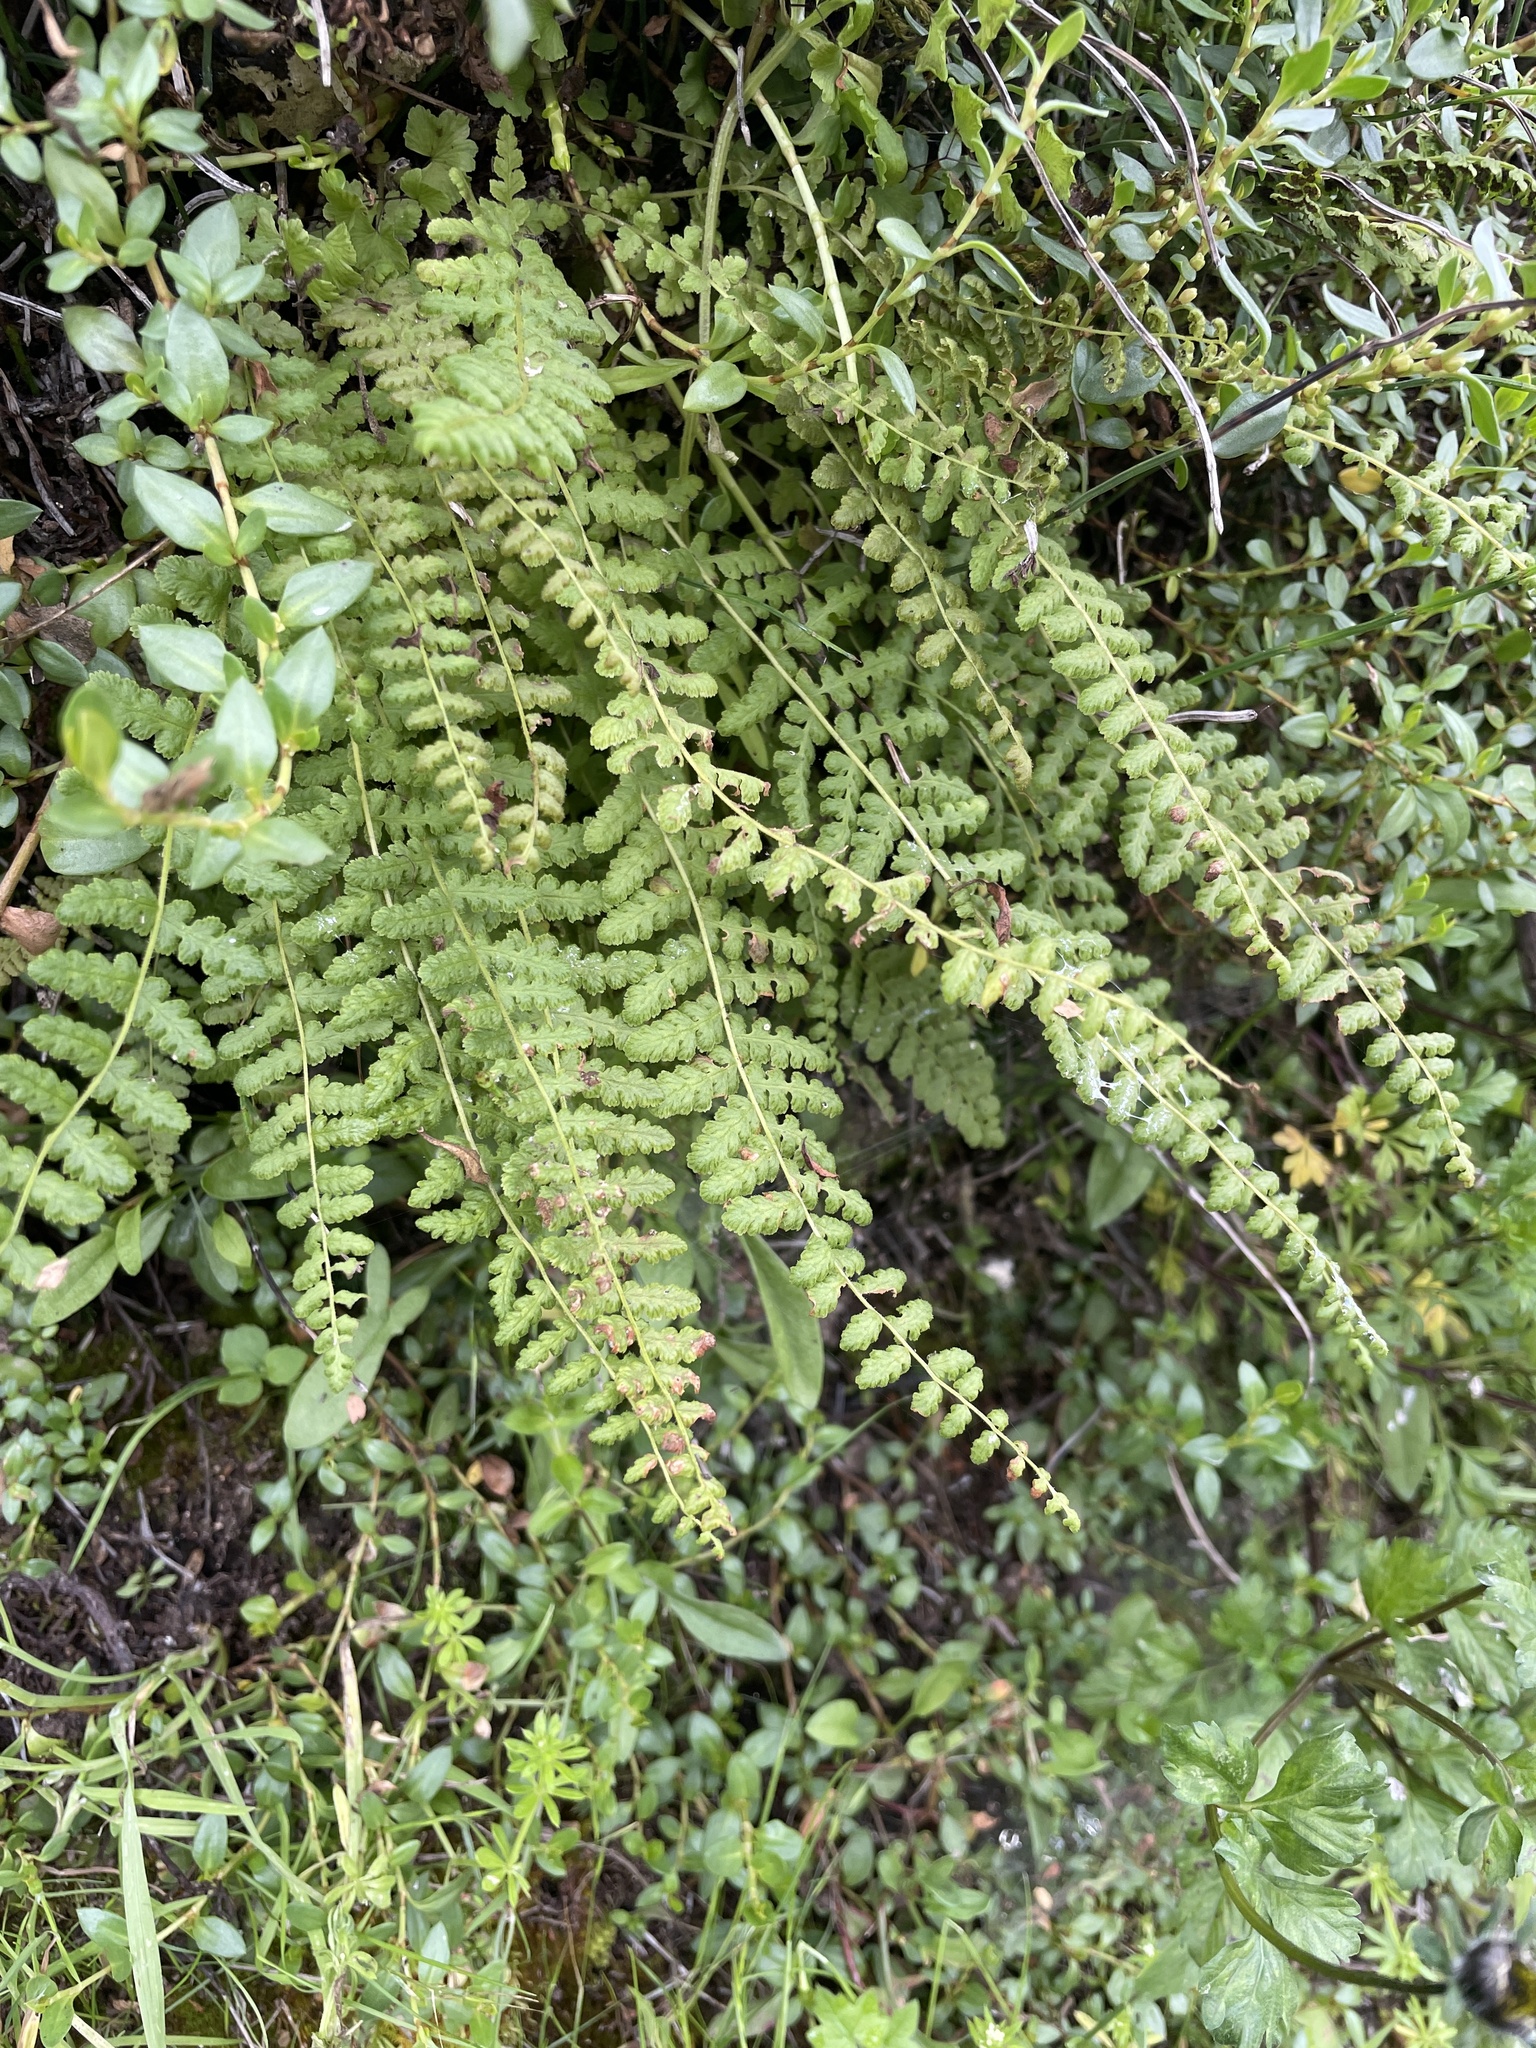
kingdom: Plantae
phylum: Tracheophyta
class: Polypodiopsida
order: Polypodiales
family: Woodsiaceae
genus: Physematium
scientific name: Physematium montevidense
